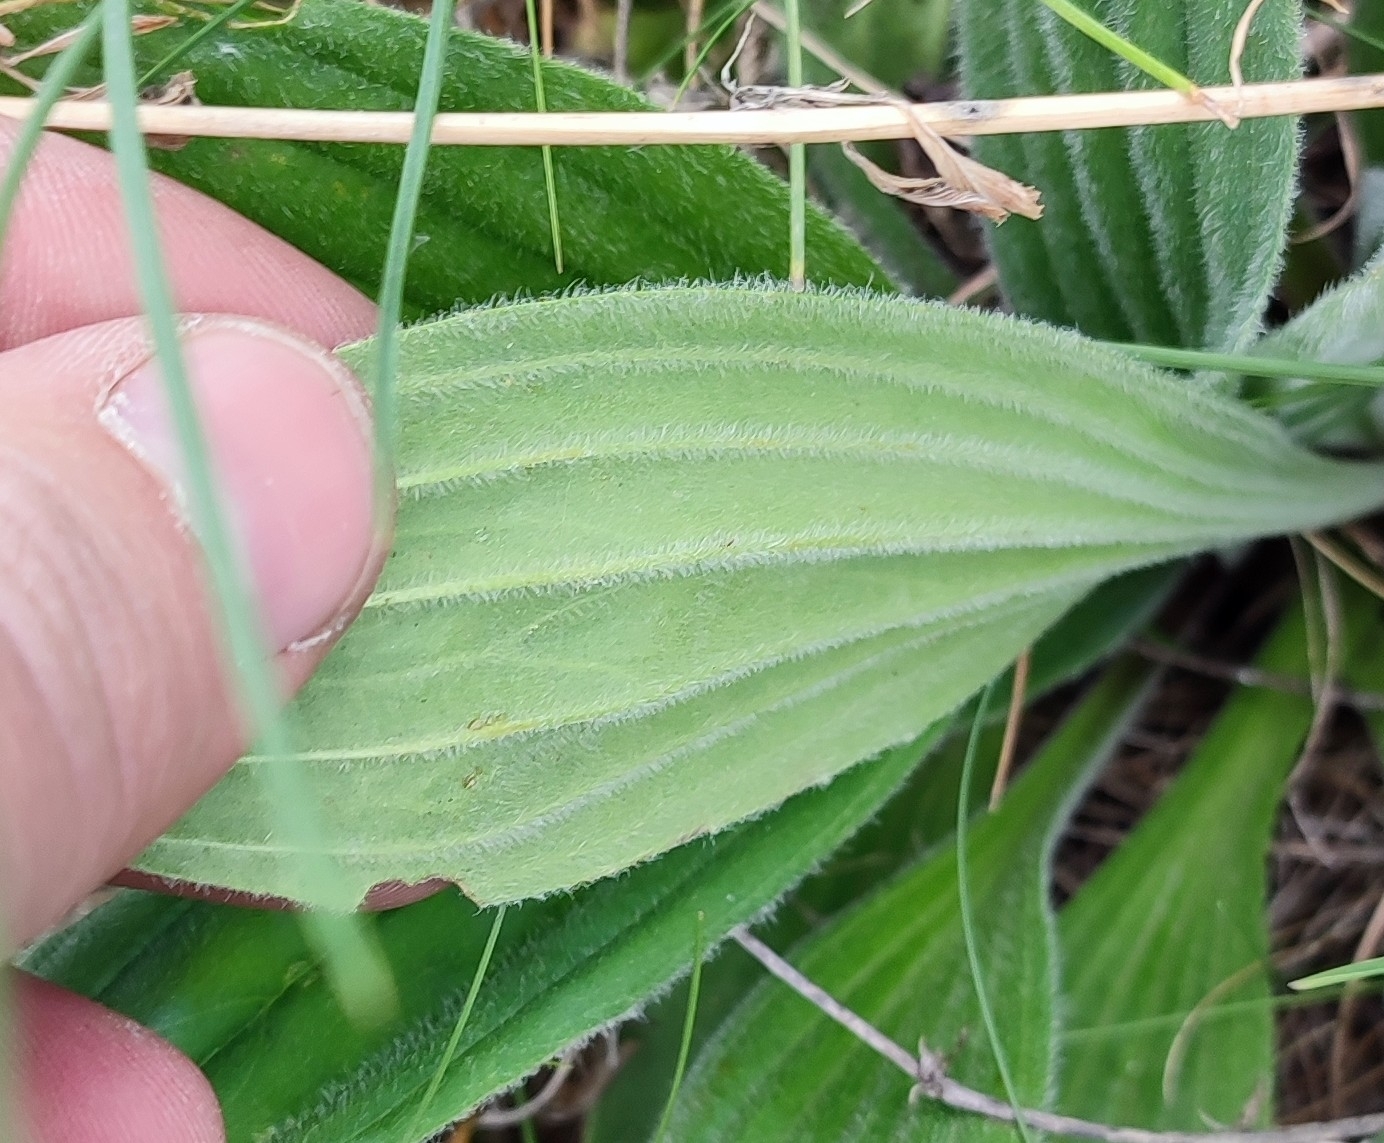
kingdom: Plantae
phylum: Tracheophyta
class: Magnoliopsida
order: Lamiales
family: Plantaginaceae
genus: Plantago
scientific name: Plantago urvillei
